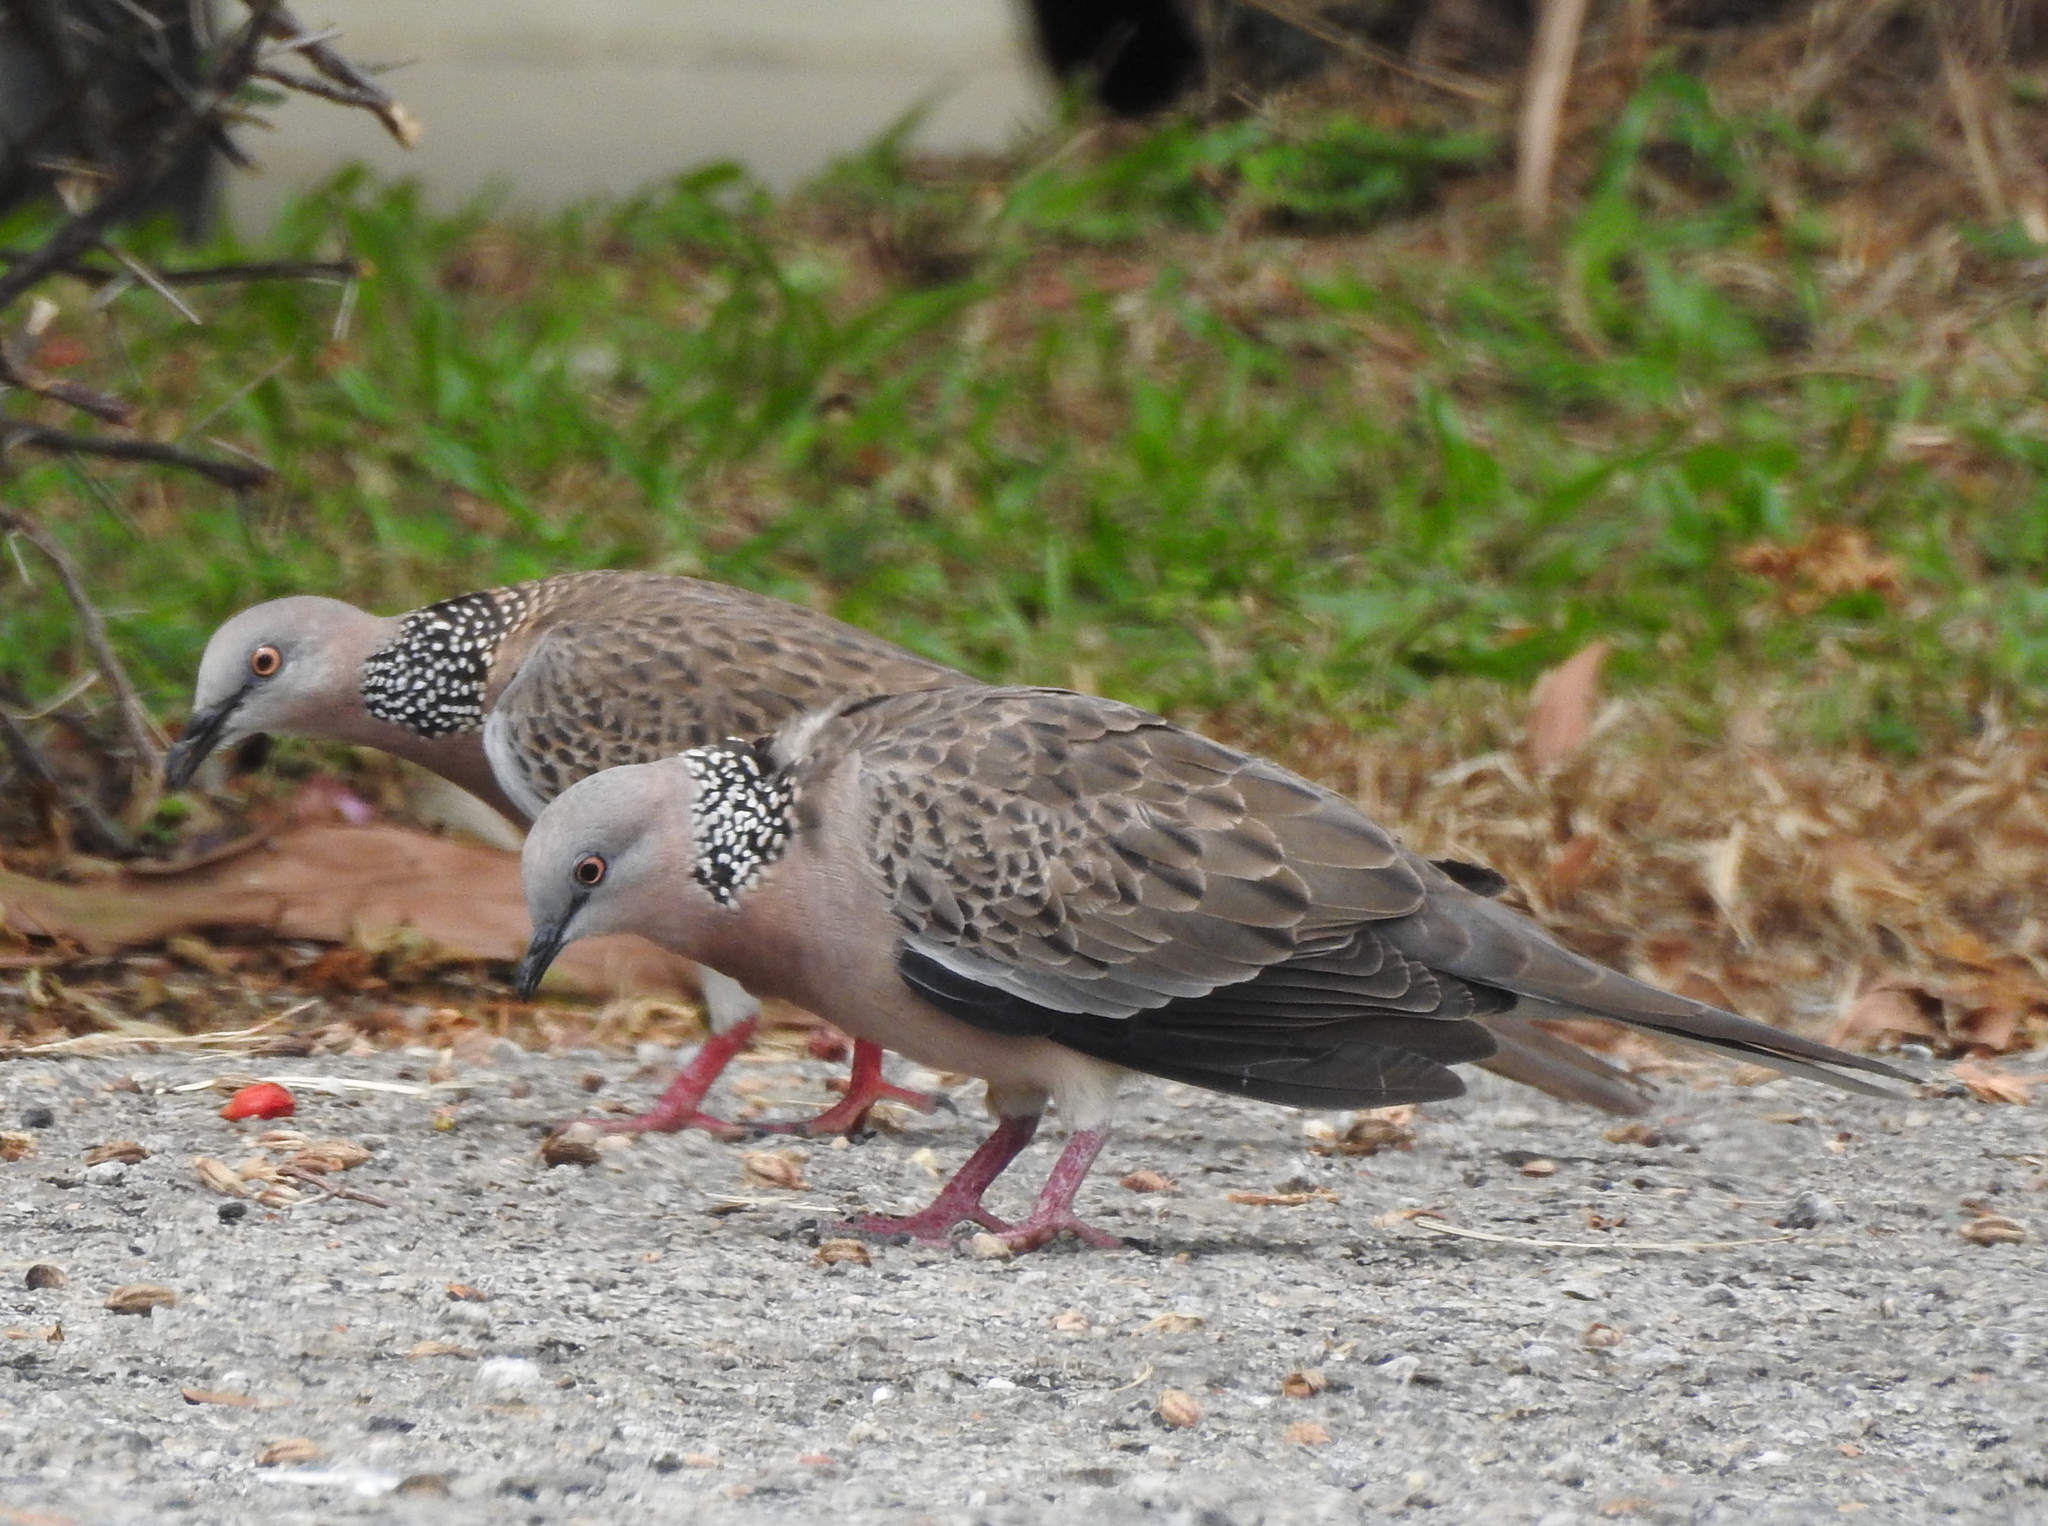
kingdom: Animalia
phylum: Chordata
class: Aves
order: Columbiformes
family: Columbidae
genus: Spilopelia
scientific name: Spilopelia chinensis
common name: Spotted dove
